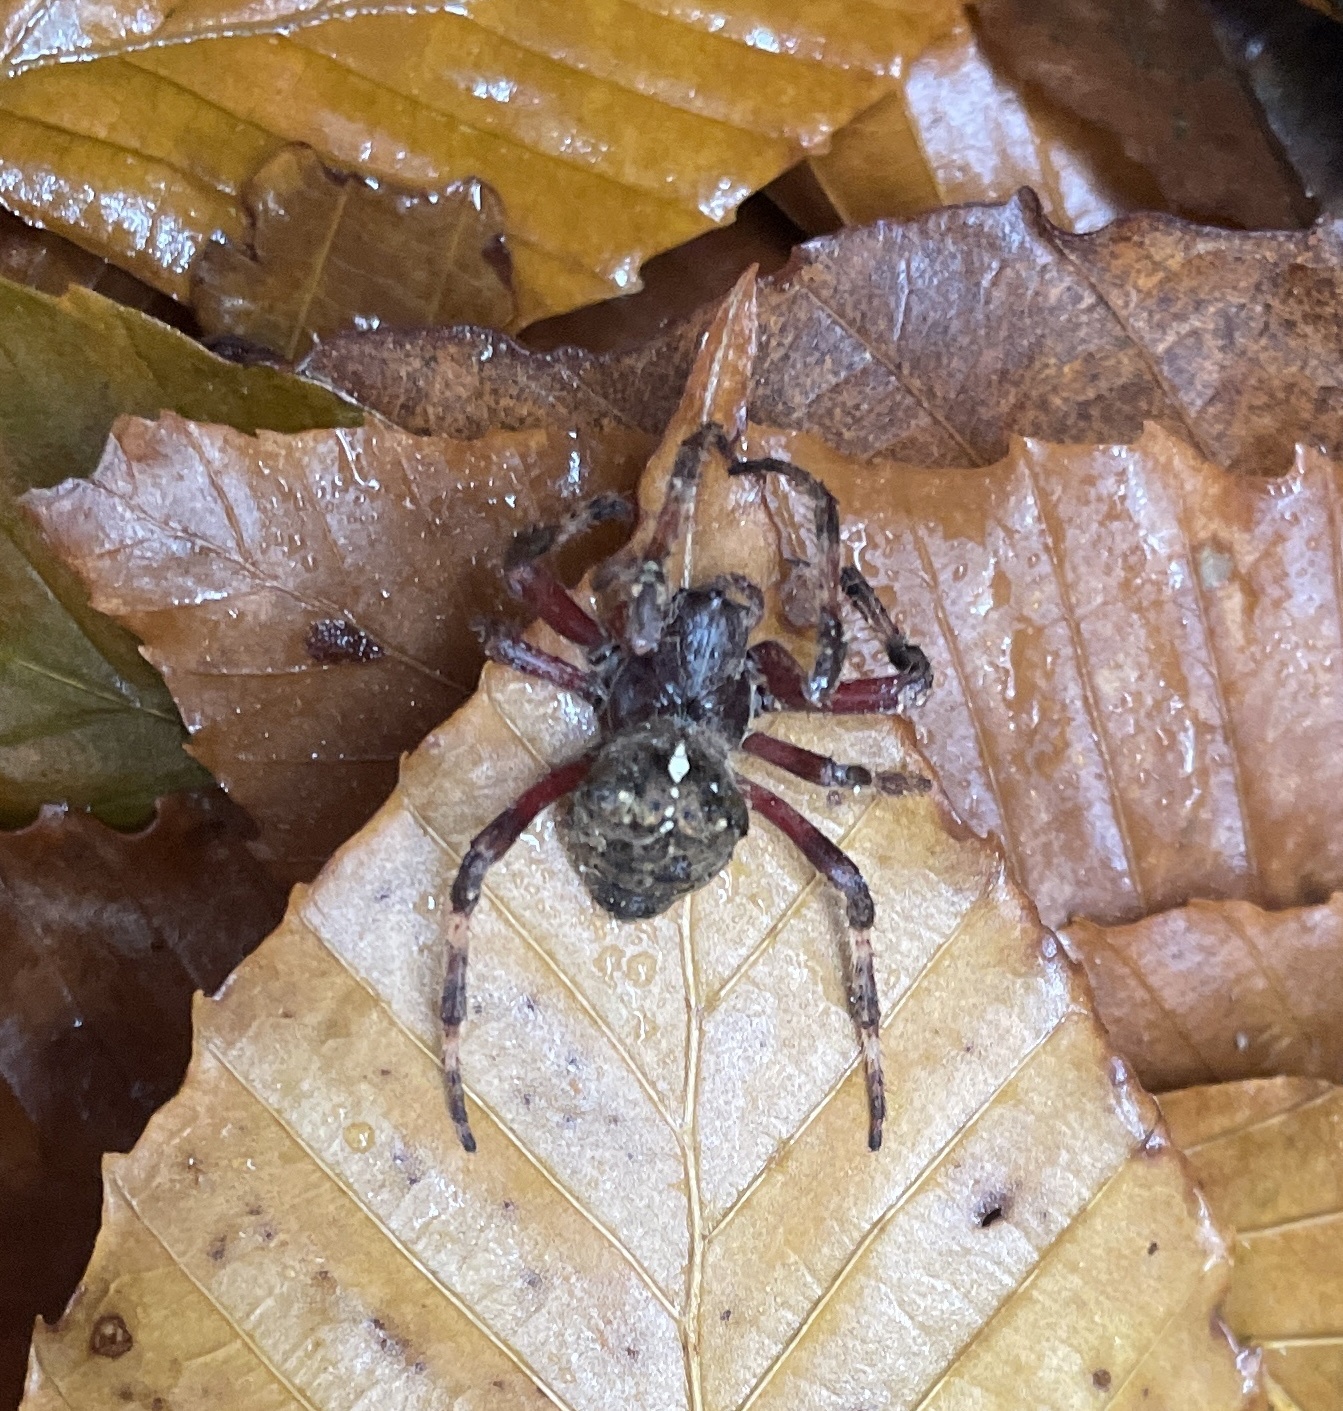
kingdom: Animalia
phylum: Arthropoda
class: Arachnida
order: Araneae
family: Araneidae
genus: Araneus
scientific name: Araneus saevus
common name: Fierce orbweaver
